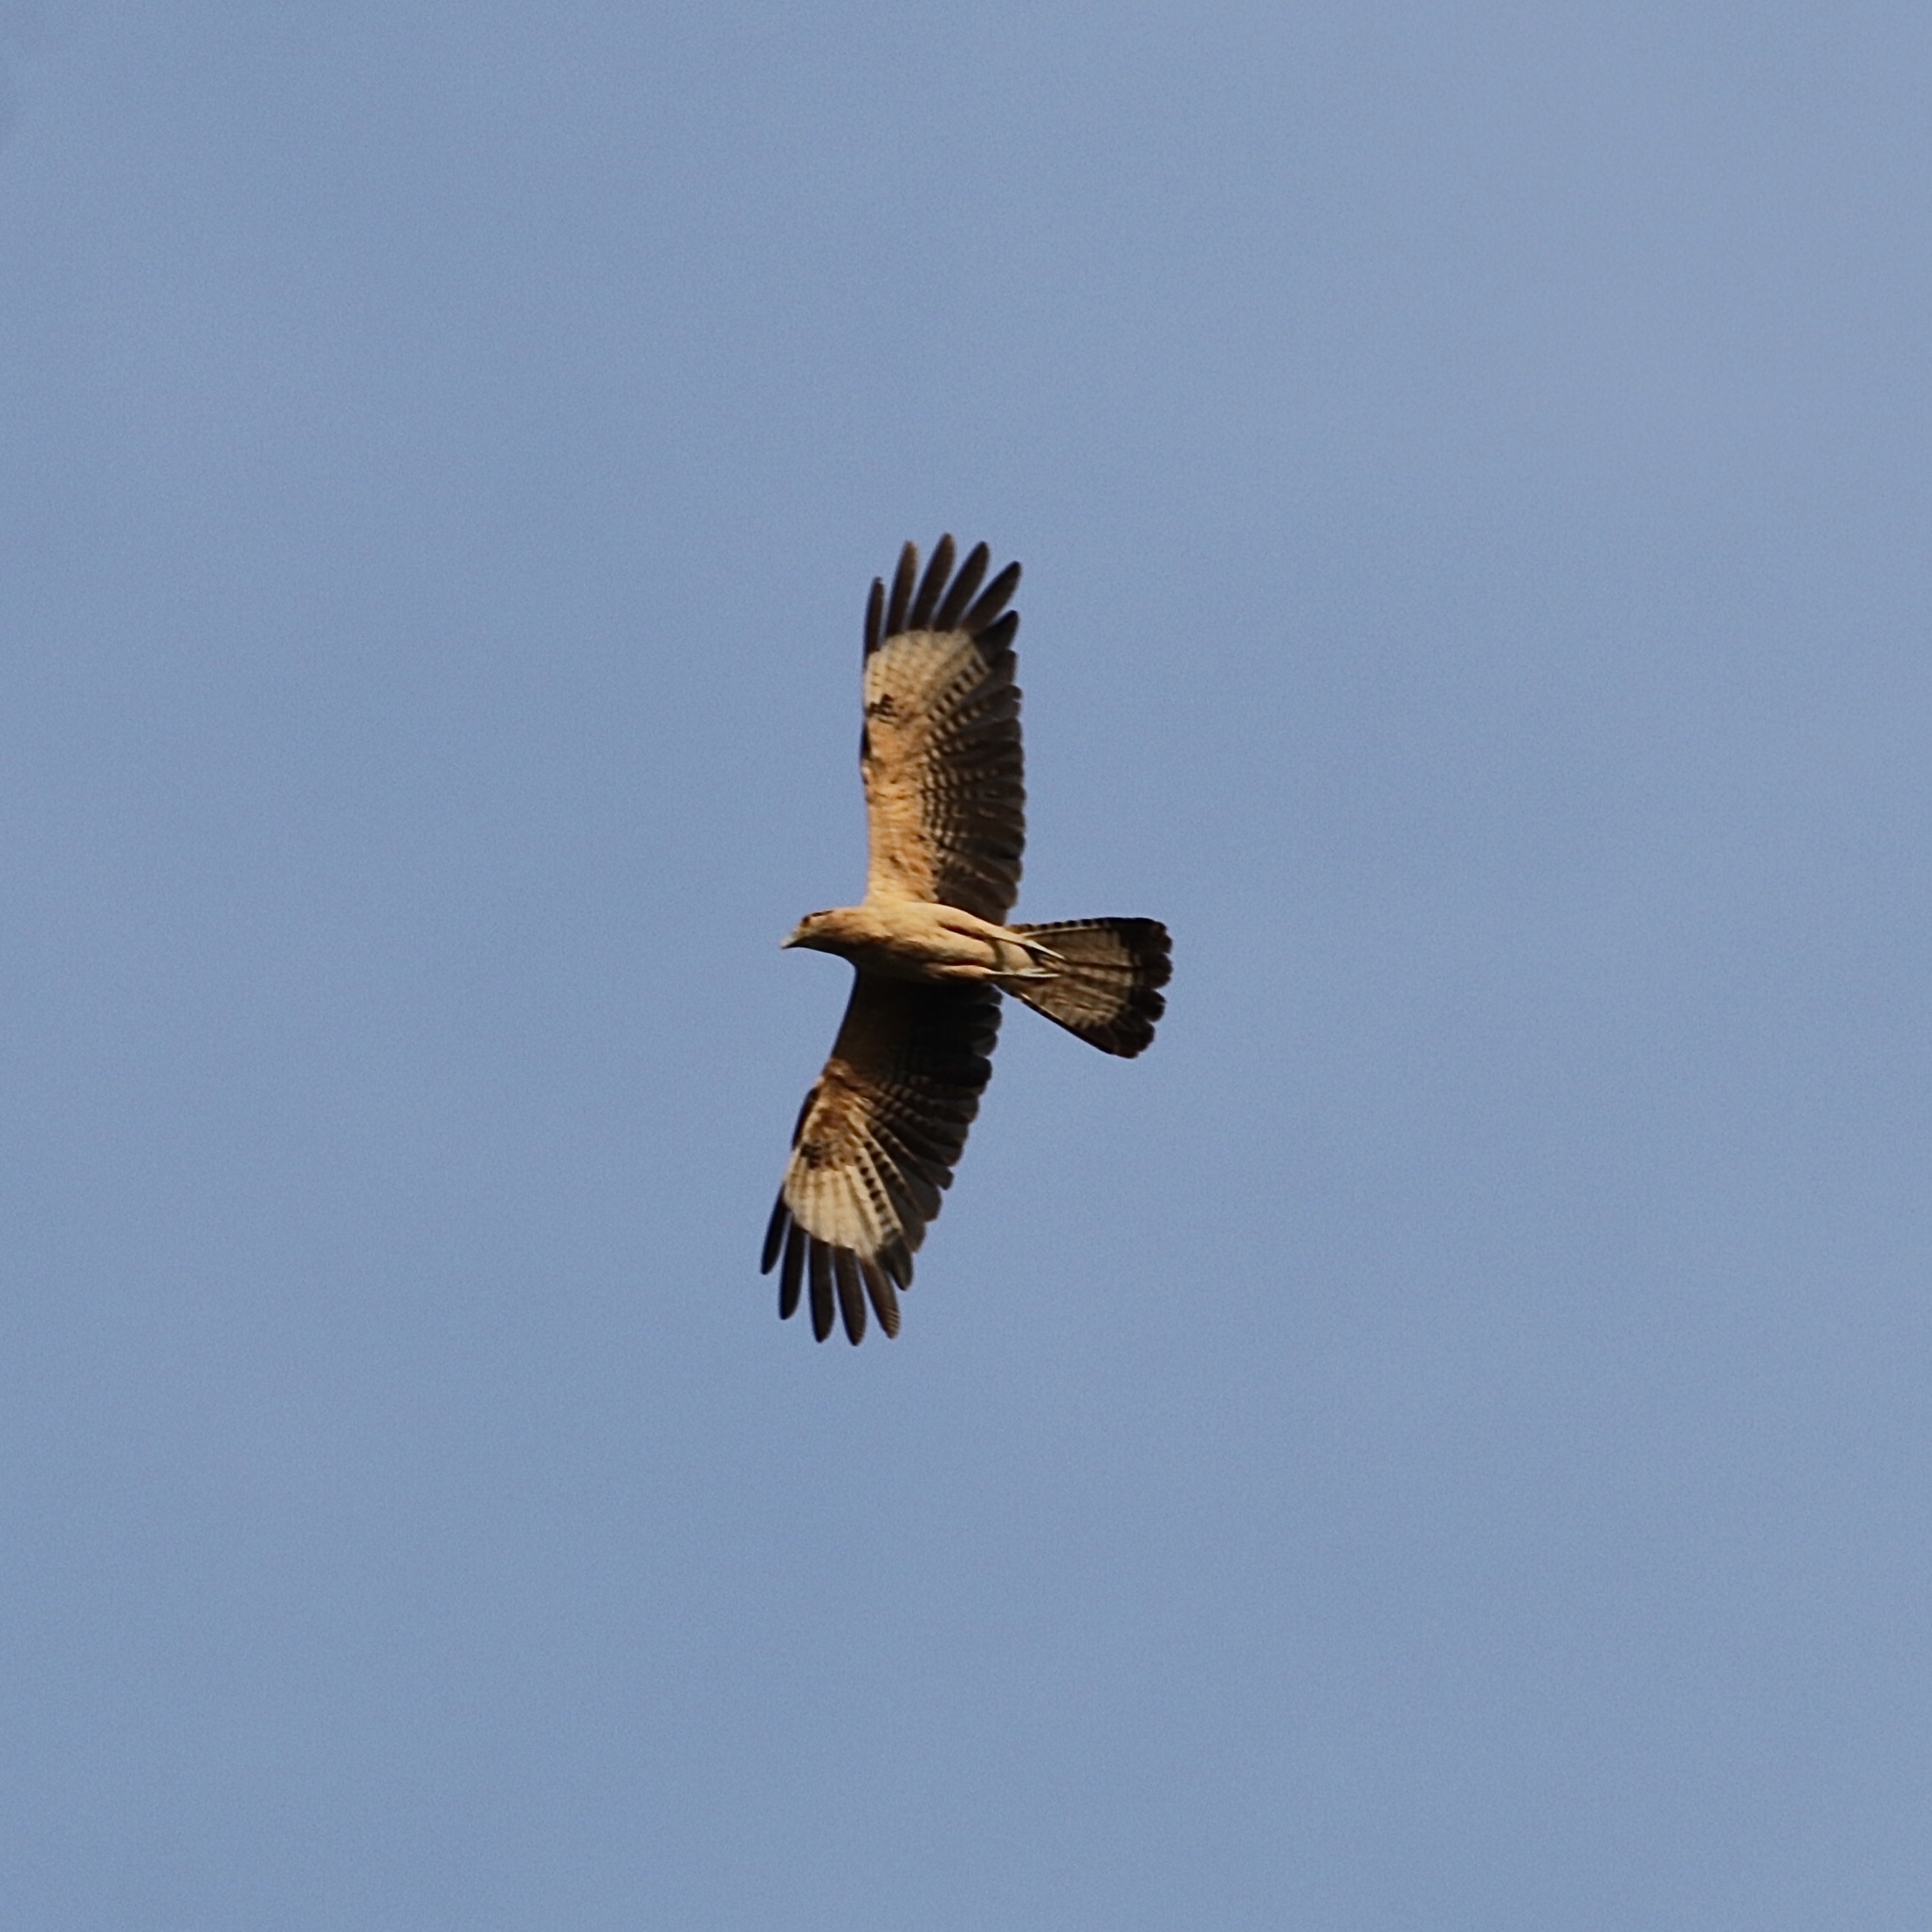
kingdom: Animalia
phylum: Chordata
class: Aves
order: Falconiformes
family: Falconidae
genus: Daptrius
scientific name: Daptrius
